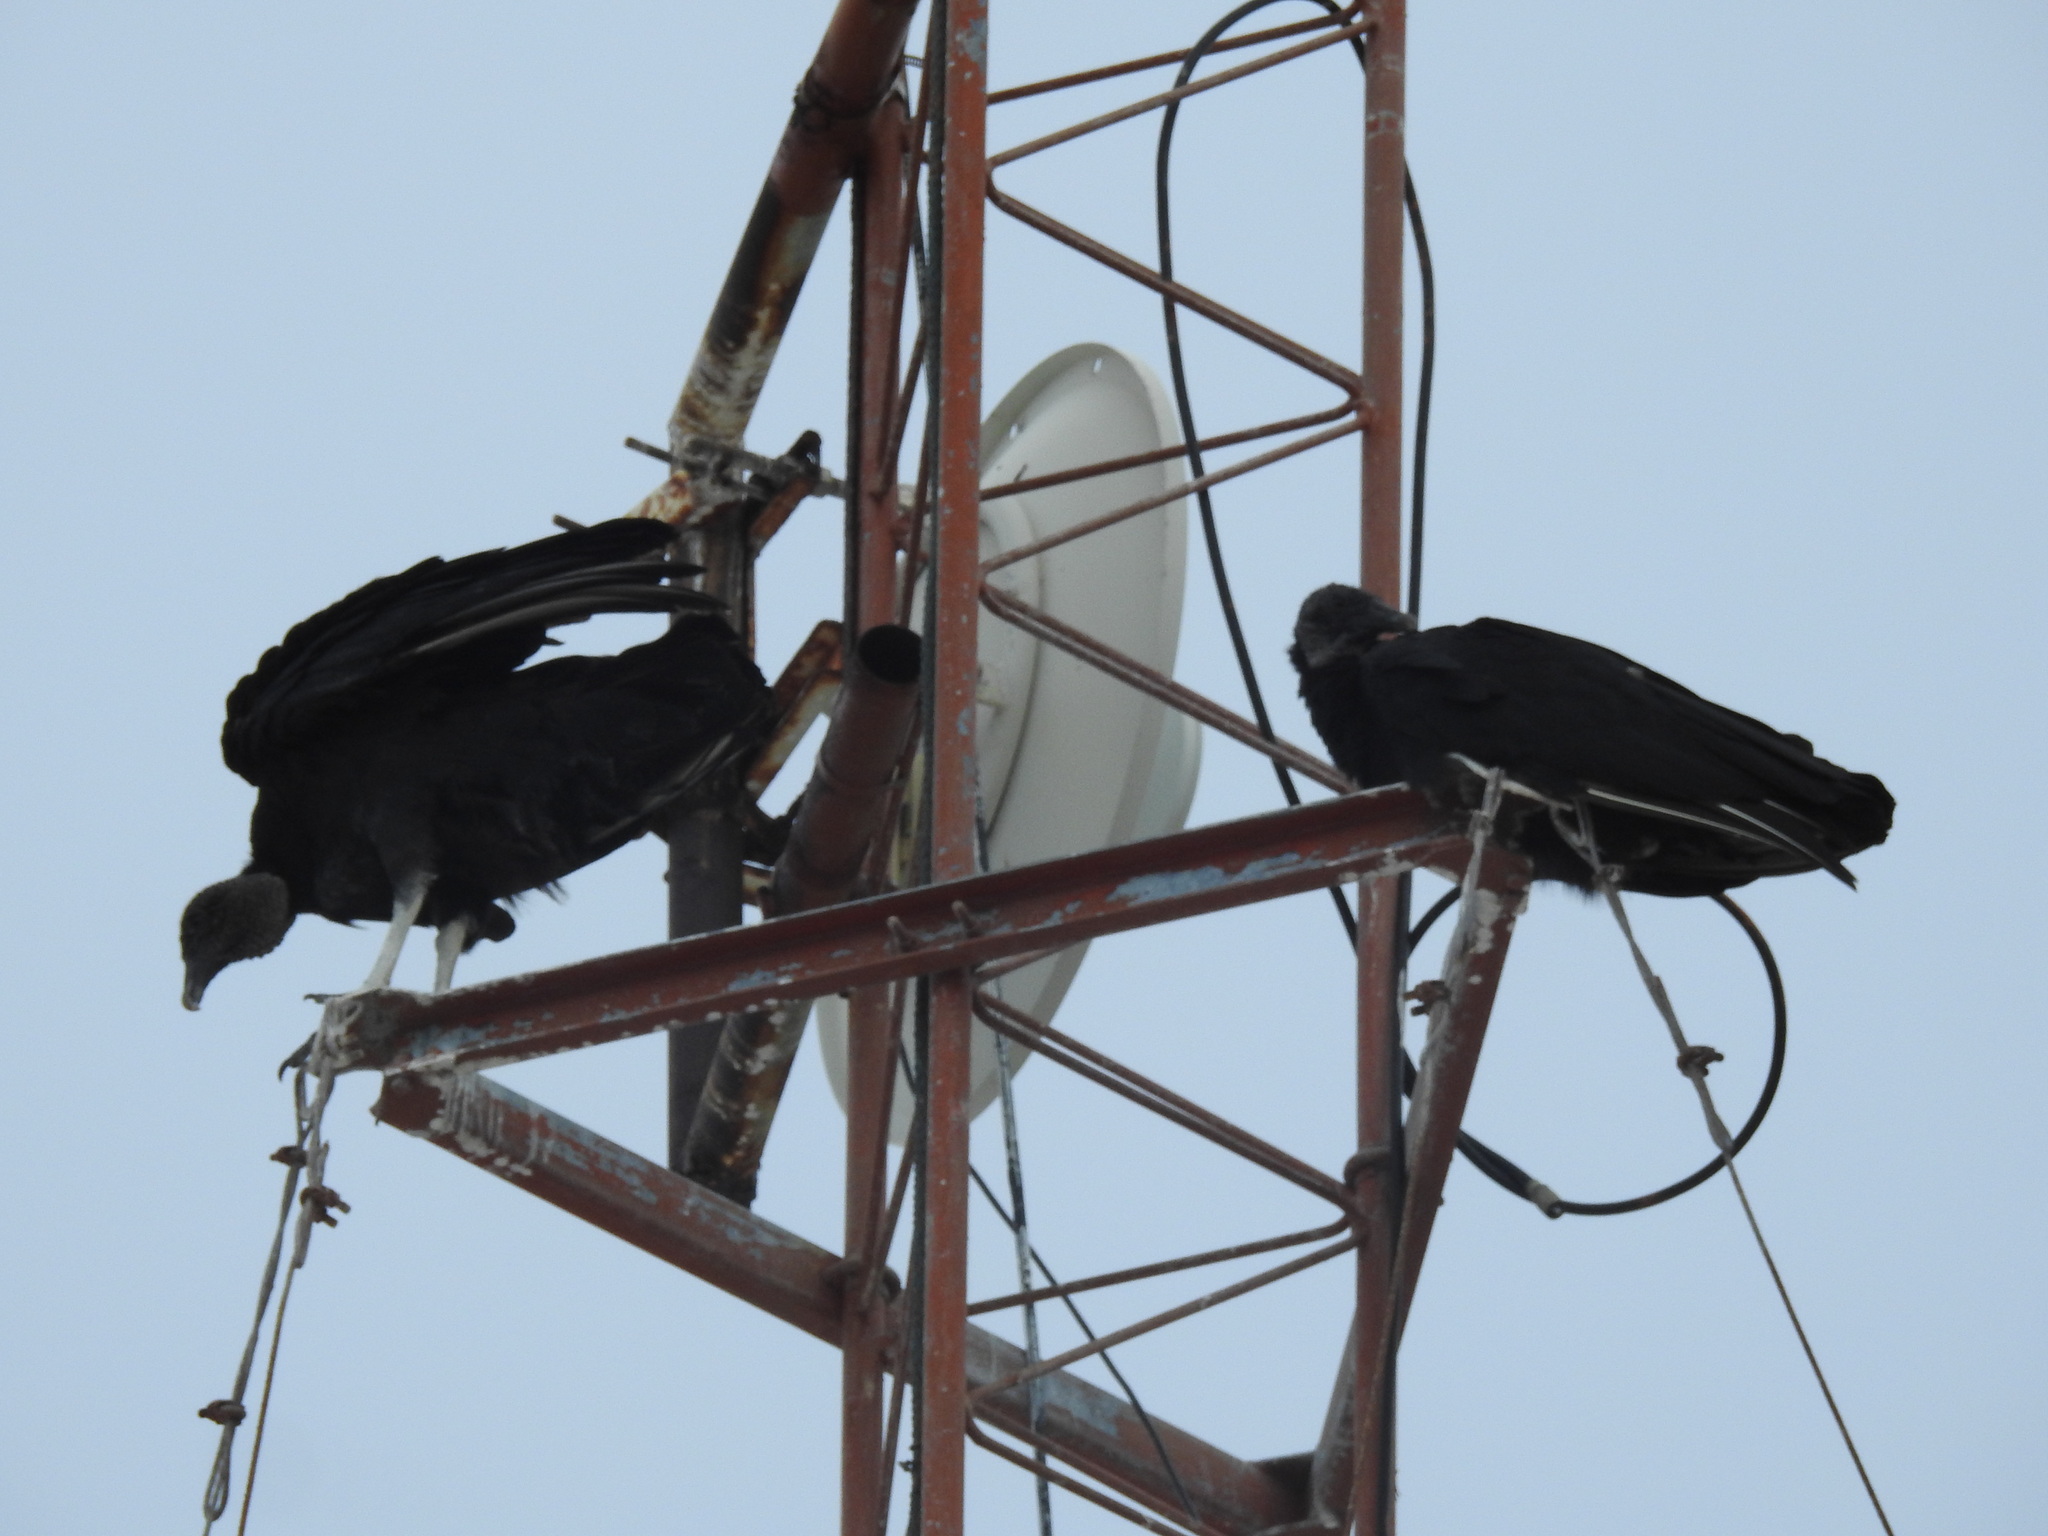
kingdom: Animalia
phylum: Chordata
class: Aves
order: Accipitriformes
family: Cathartidae
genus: Coragyps
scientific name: Coragyps atratus
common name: Black vulture
